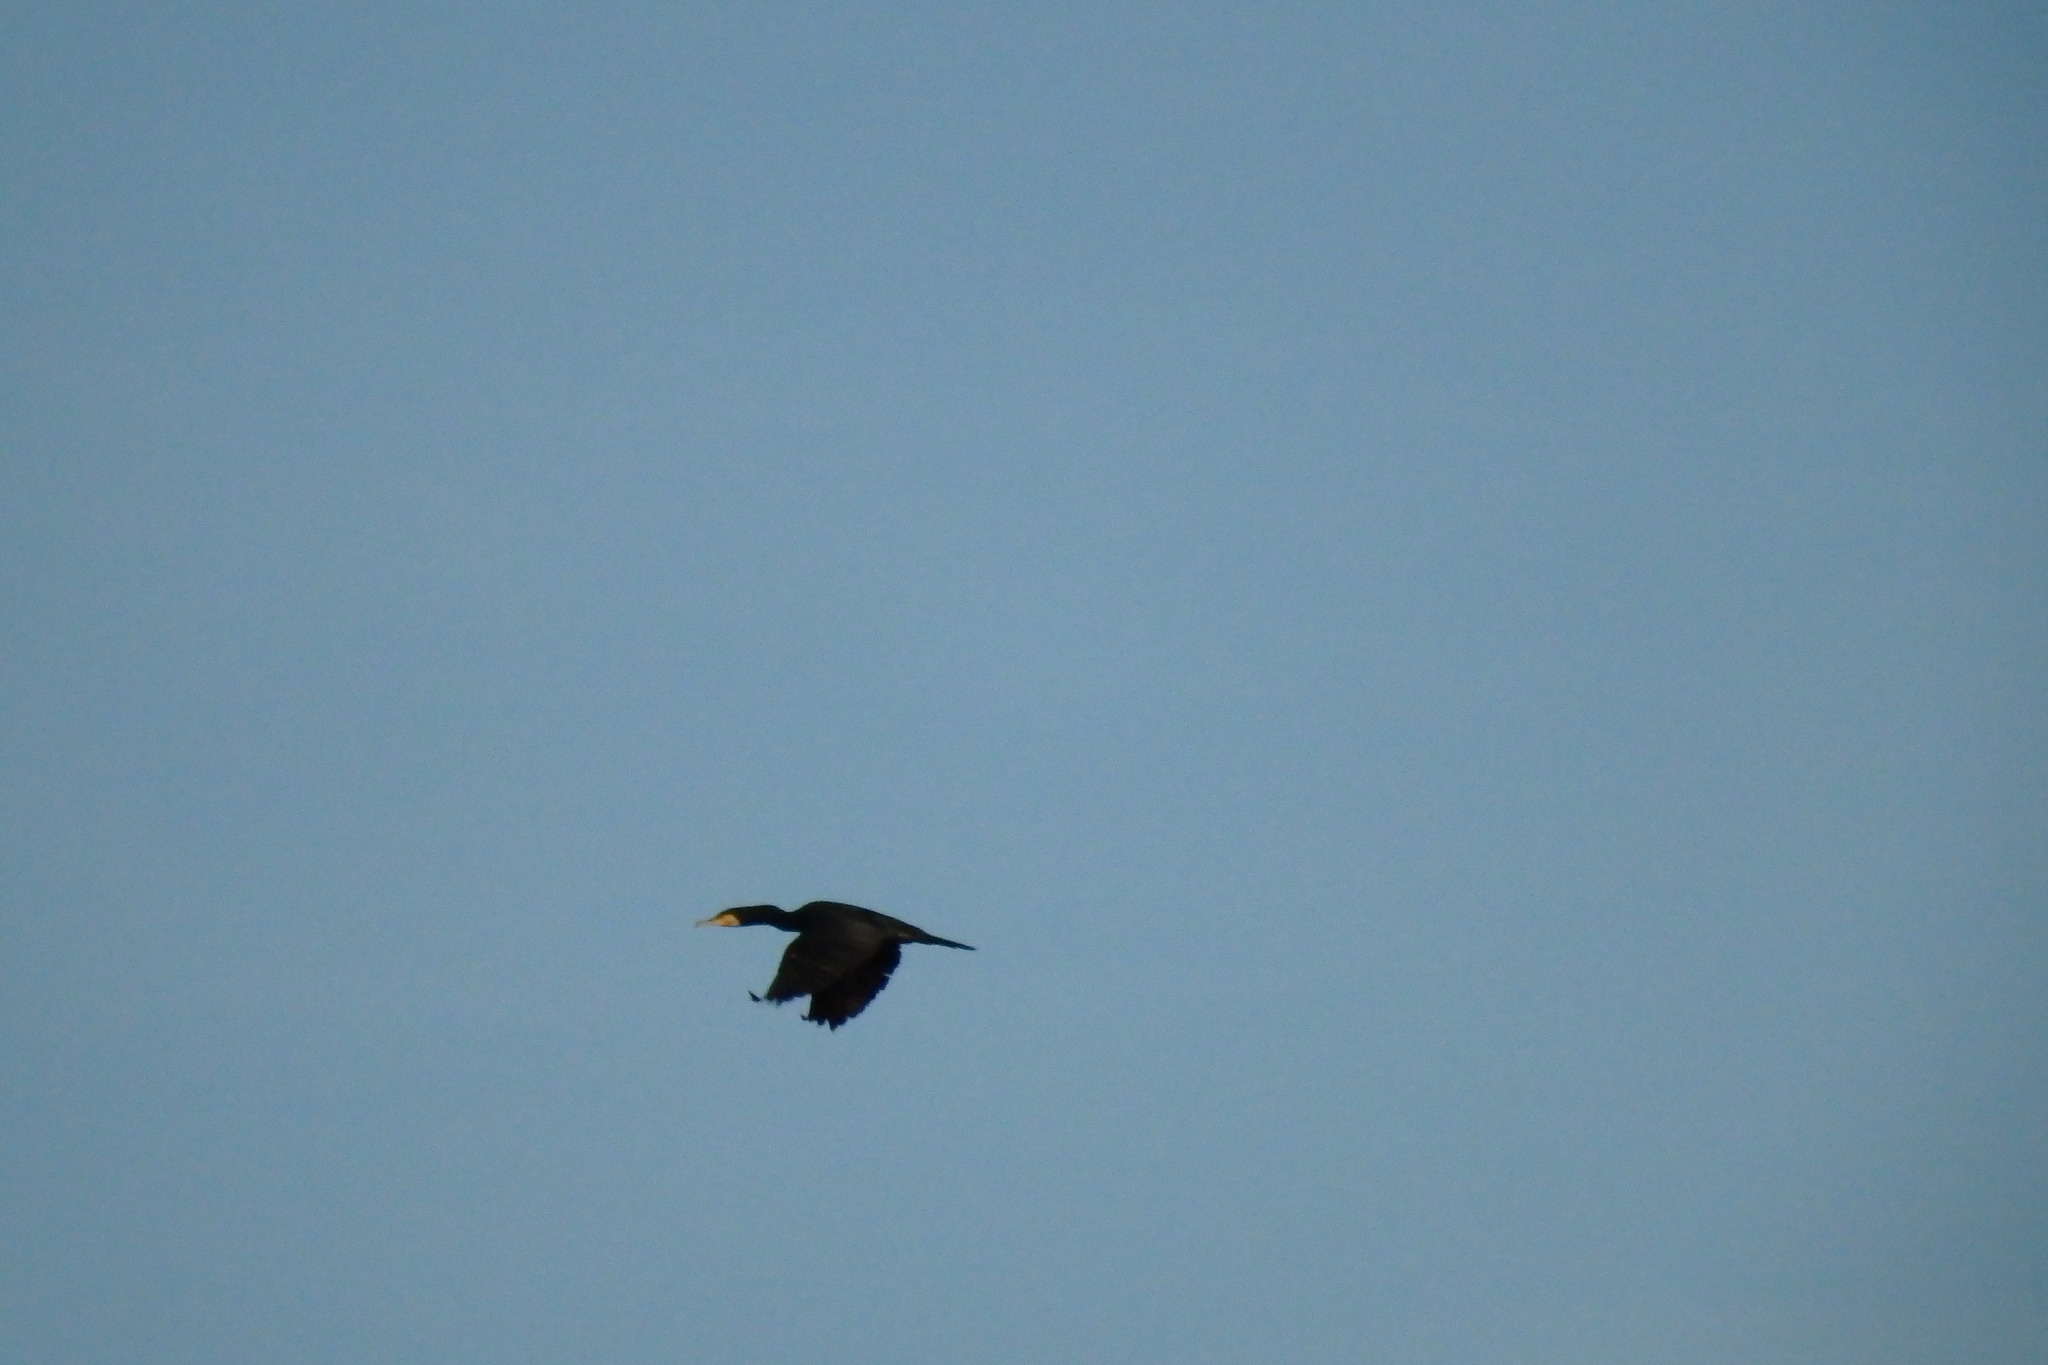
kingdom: Animalia
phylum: Chordata
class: Aves
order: Suliformes
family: Phalacrocoracidae
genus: Phalacrocorax
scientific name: Phalacrocorax carbo
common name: Great cormorant
